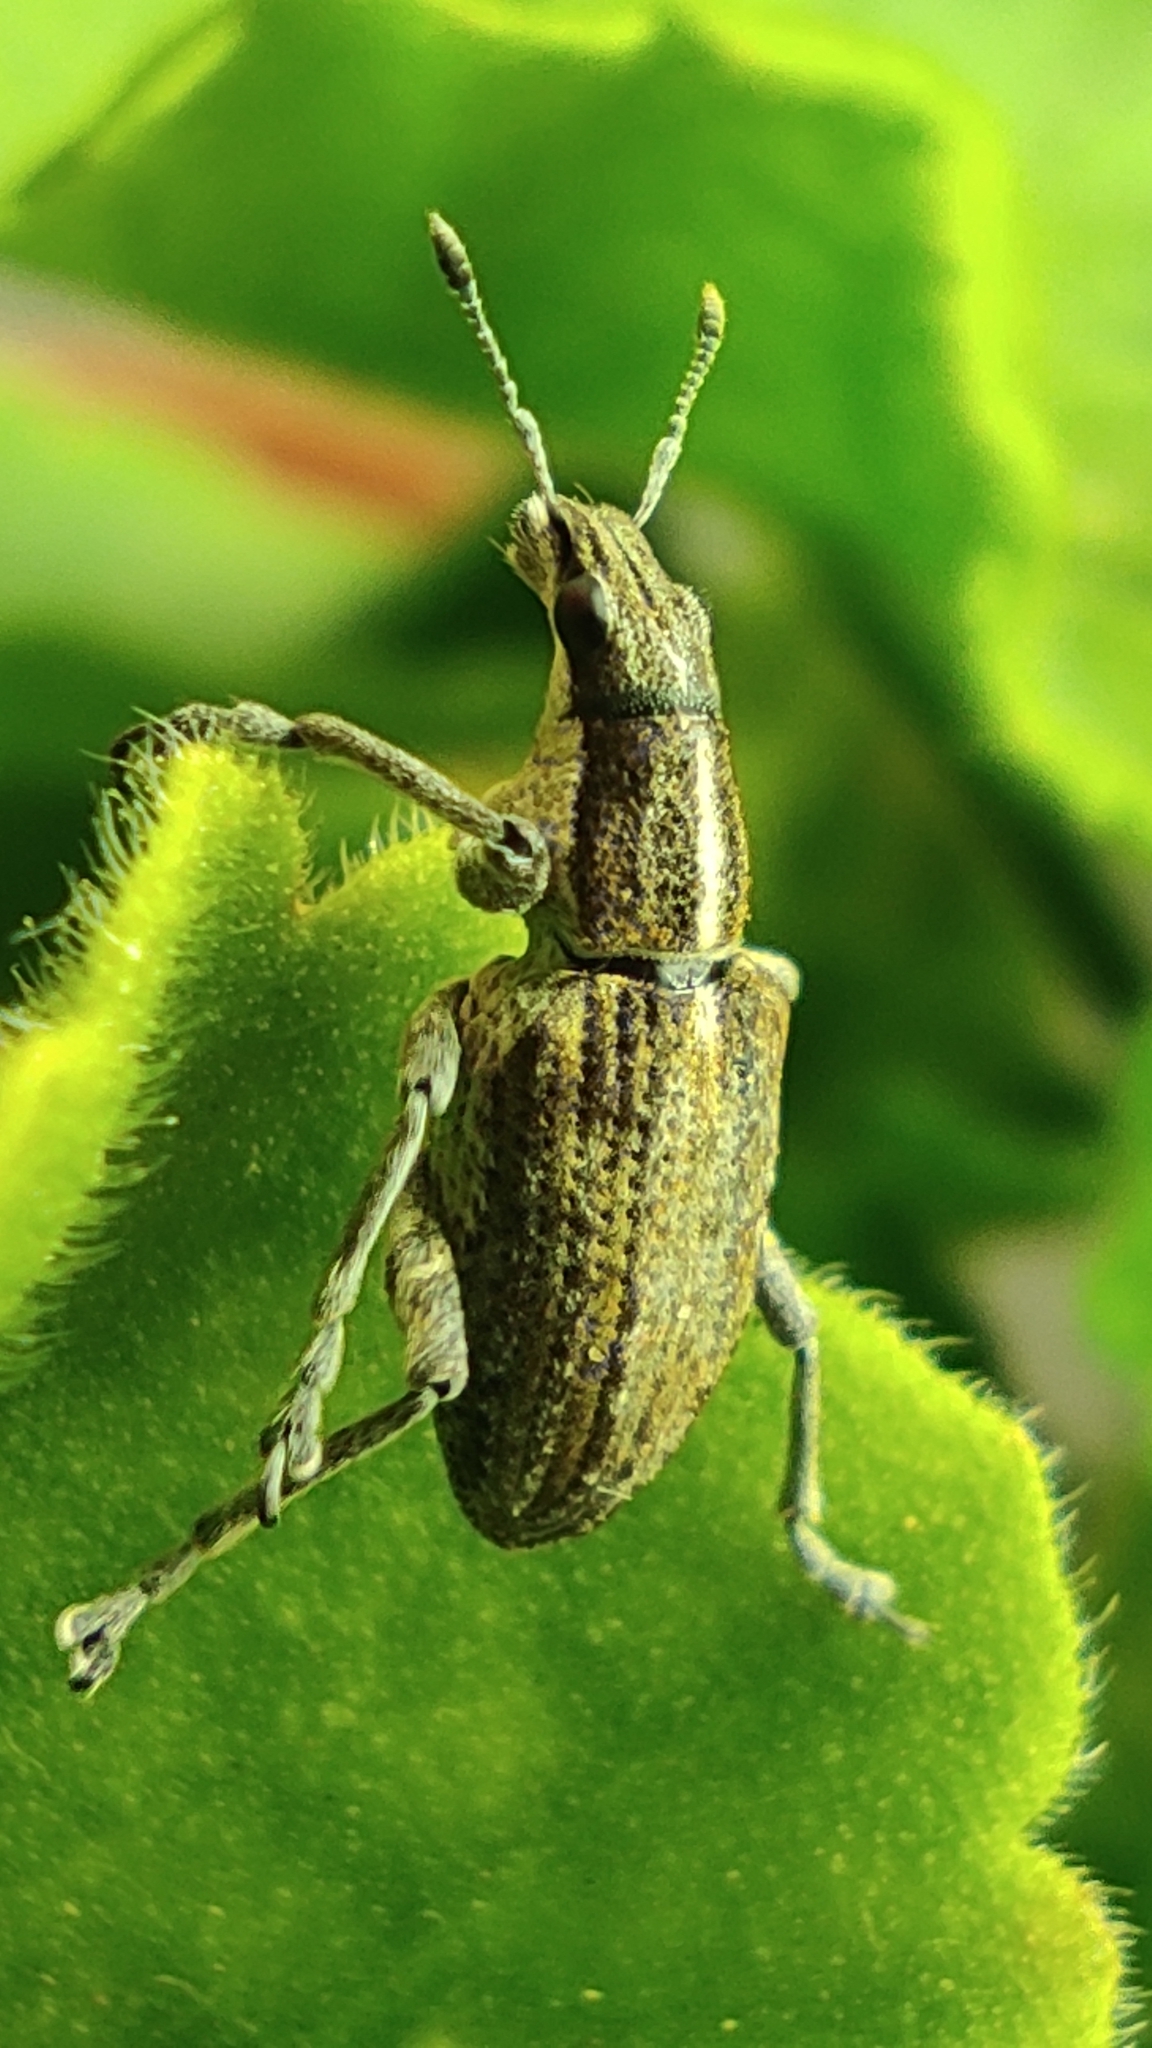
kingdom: Animalia
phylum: Arthropoda
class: Insecta
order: Coleoptera
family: Curculionidae
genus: Charagmus
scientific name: Charagmus gressorius
